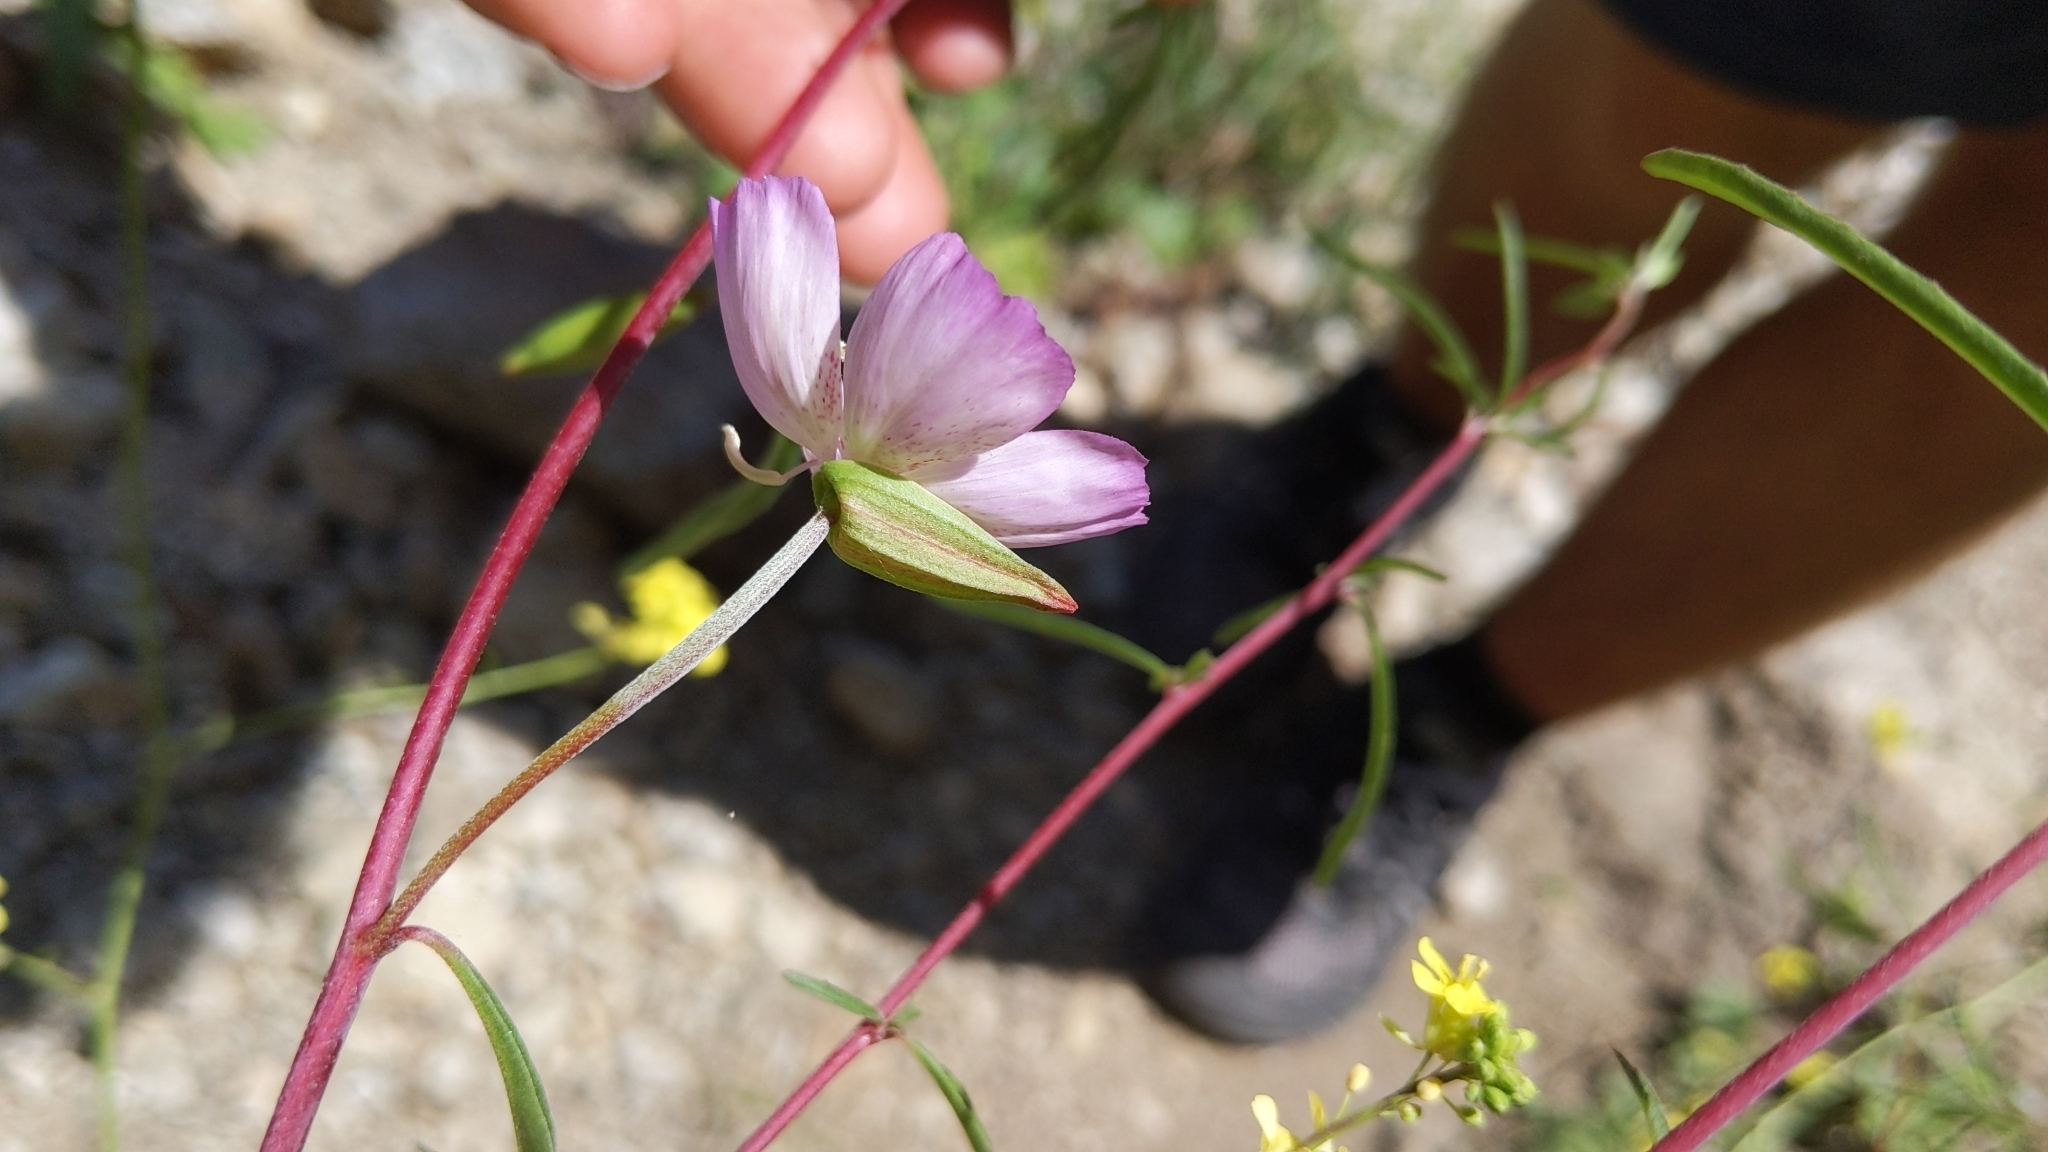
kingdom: Plantae
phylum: Tracheophyta
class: Magnoliopsida
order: Myrtales
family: Onagraceae
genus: Clarkia
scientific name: Clarkia bottae
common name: Punch-bowl godetia
